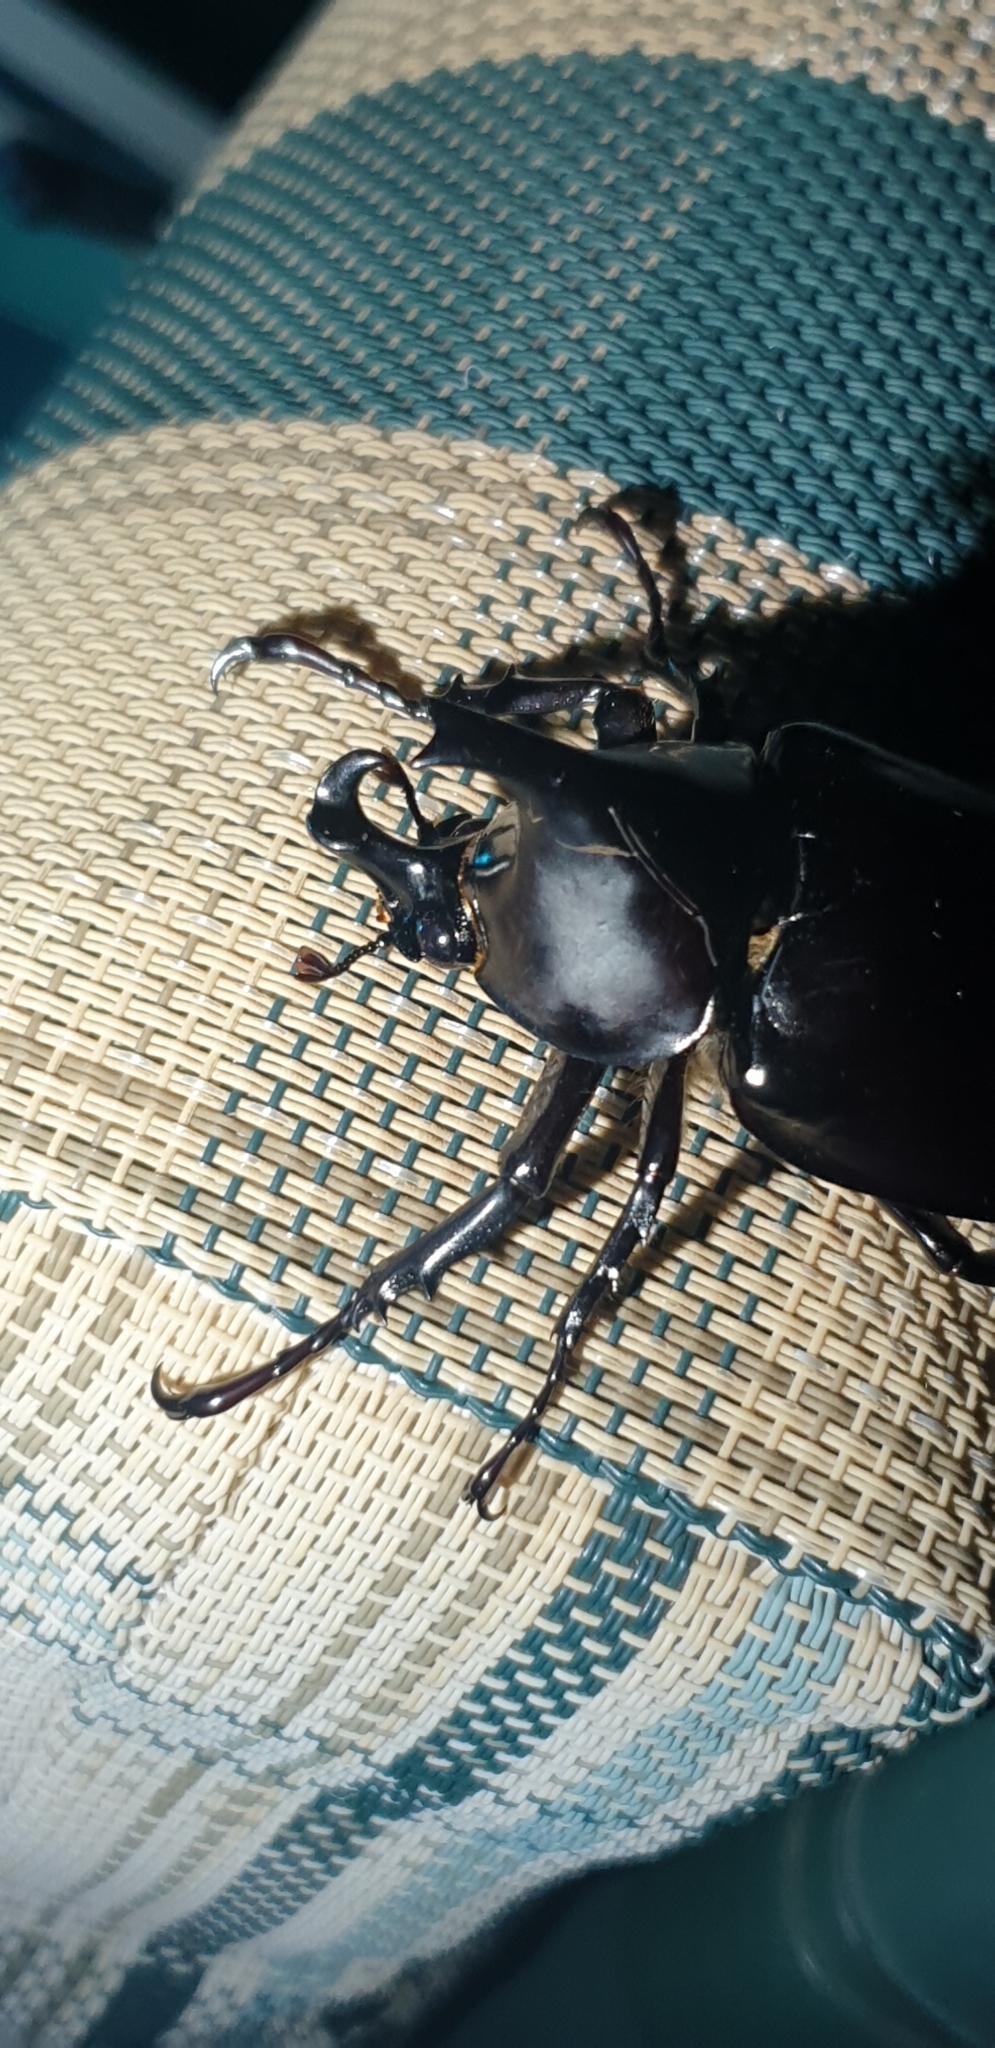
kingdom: Animalia
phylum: Arthropoda
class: Insecta
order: Coleoptera
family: Scarabaeidae
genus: Xylotrupes
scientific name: Xylotrupes australicus
